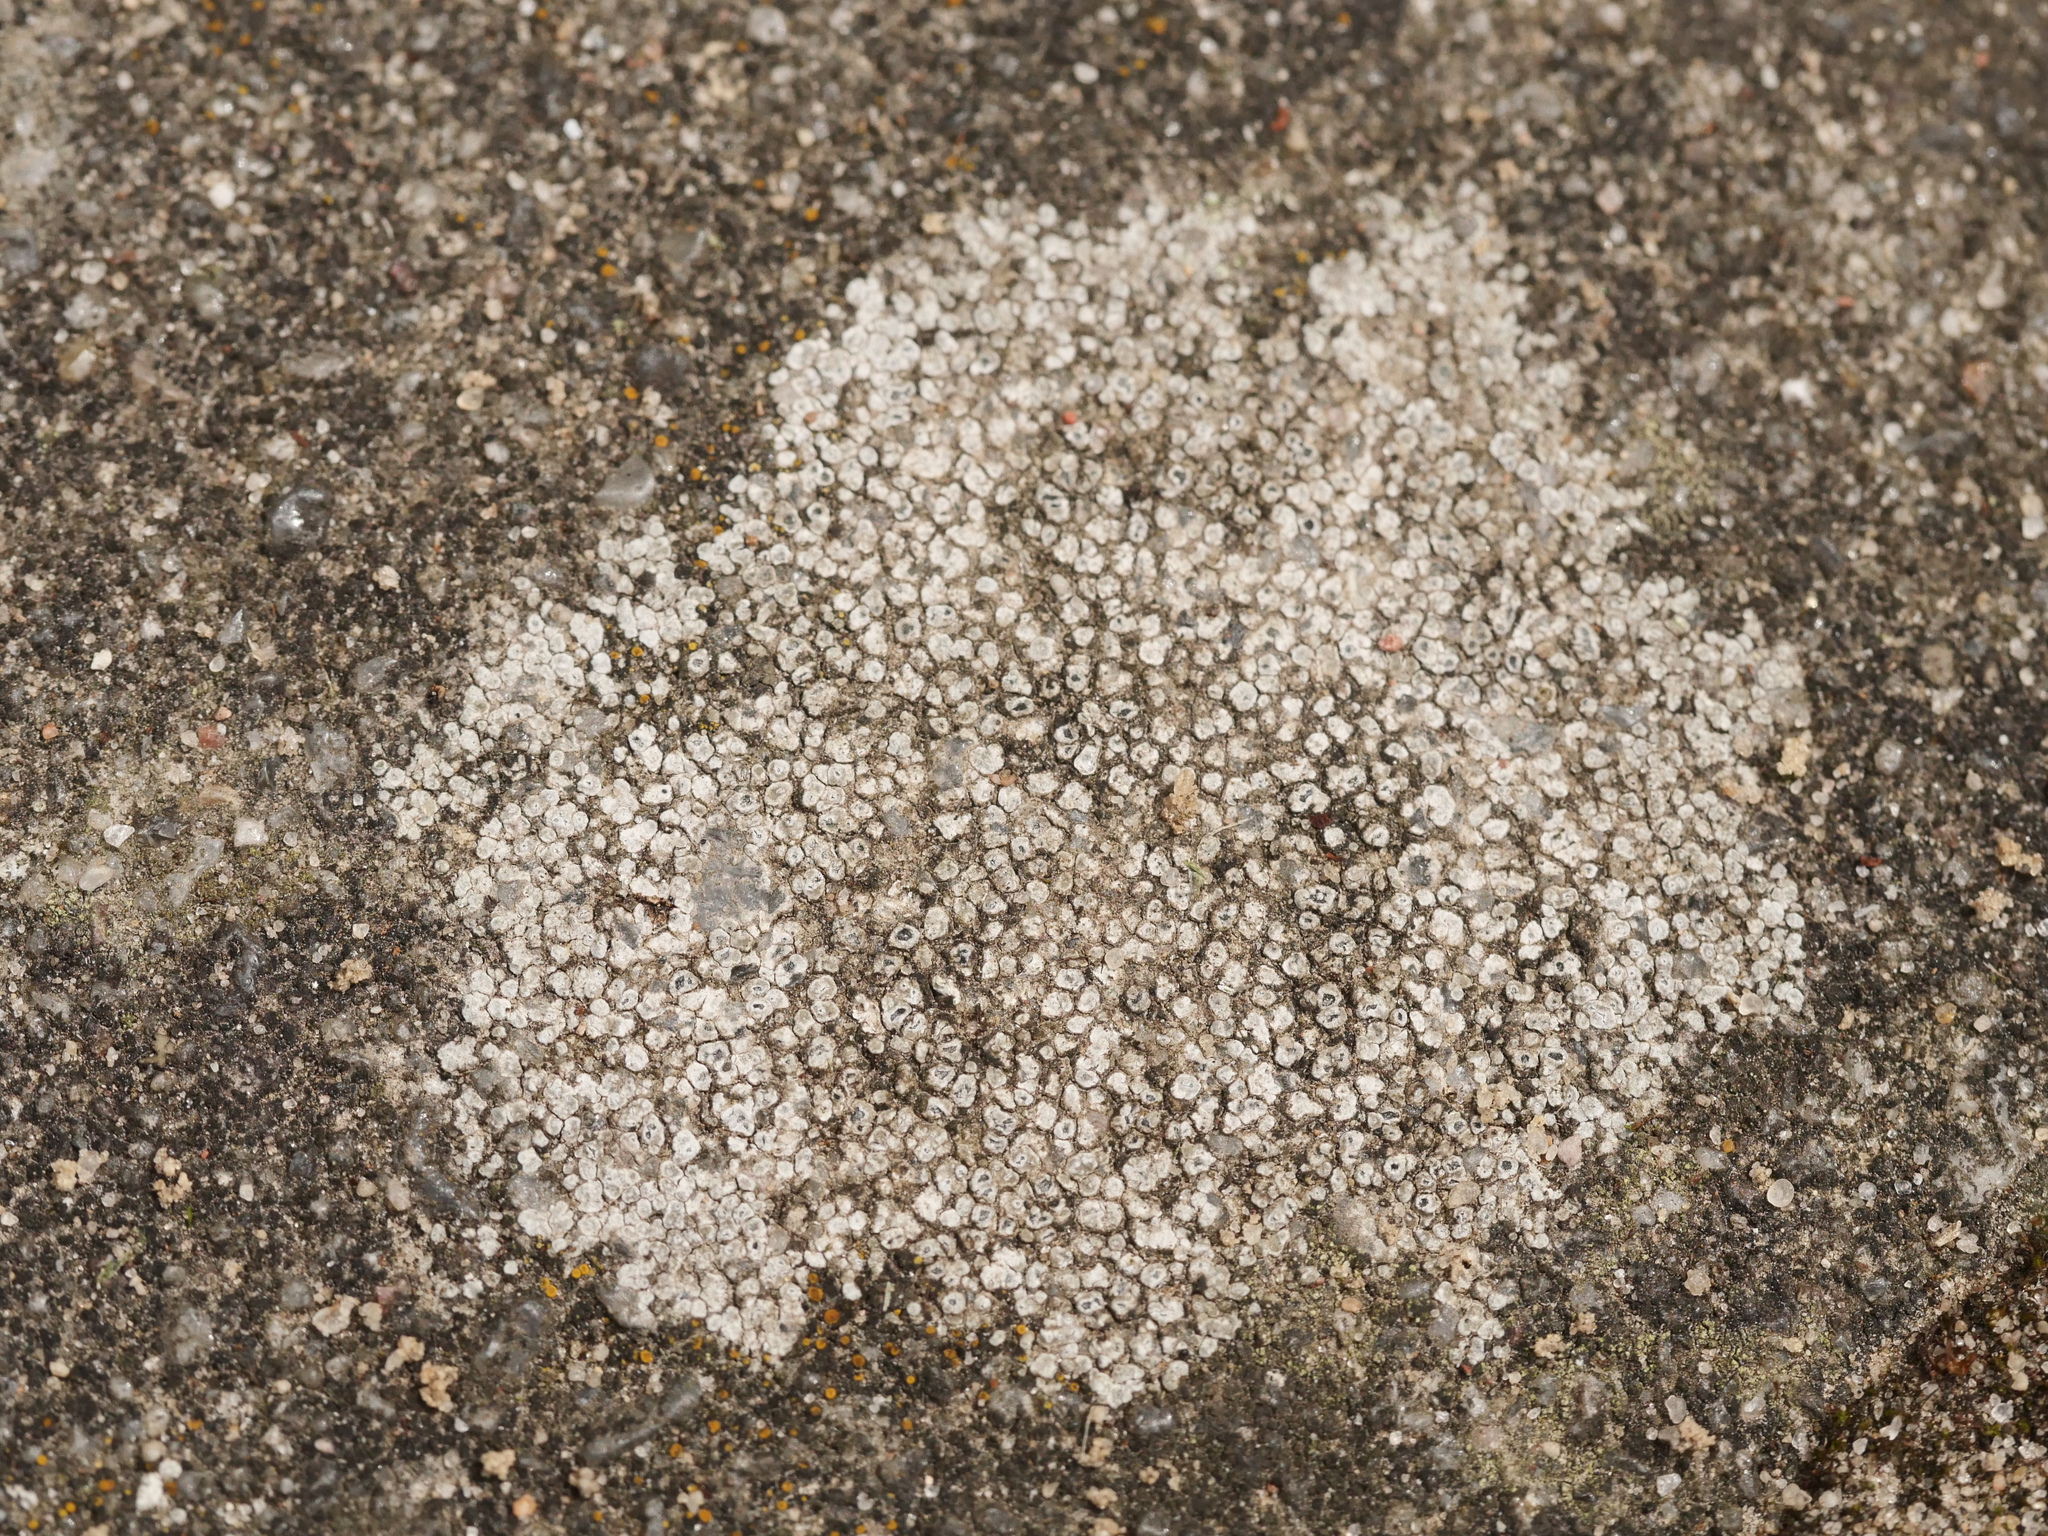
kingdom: Fungi
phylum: Ascomycota
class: Lecanoromycetes
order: Pertusariales
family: Megasporaceae
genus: Circinaria
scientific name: Circinaria contorta
